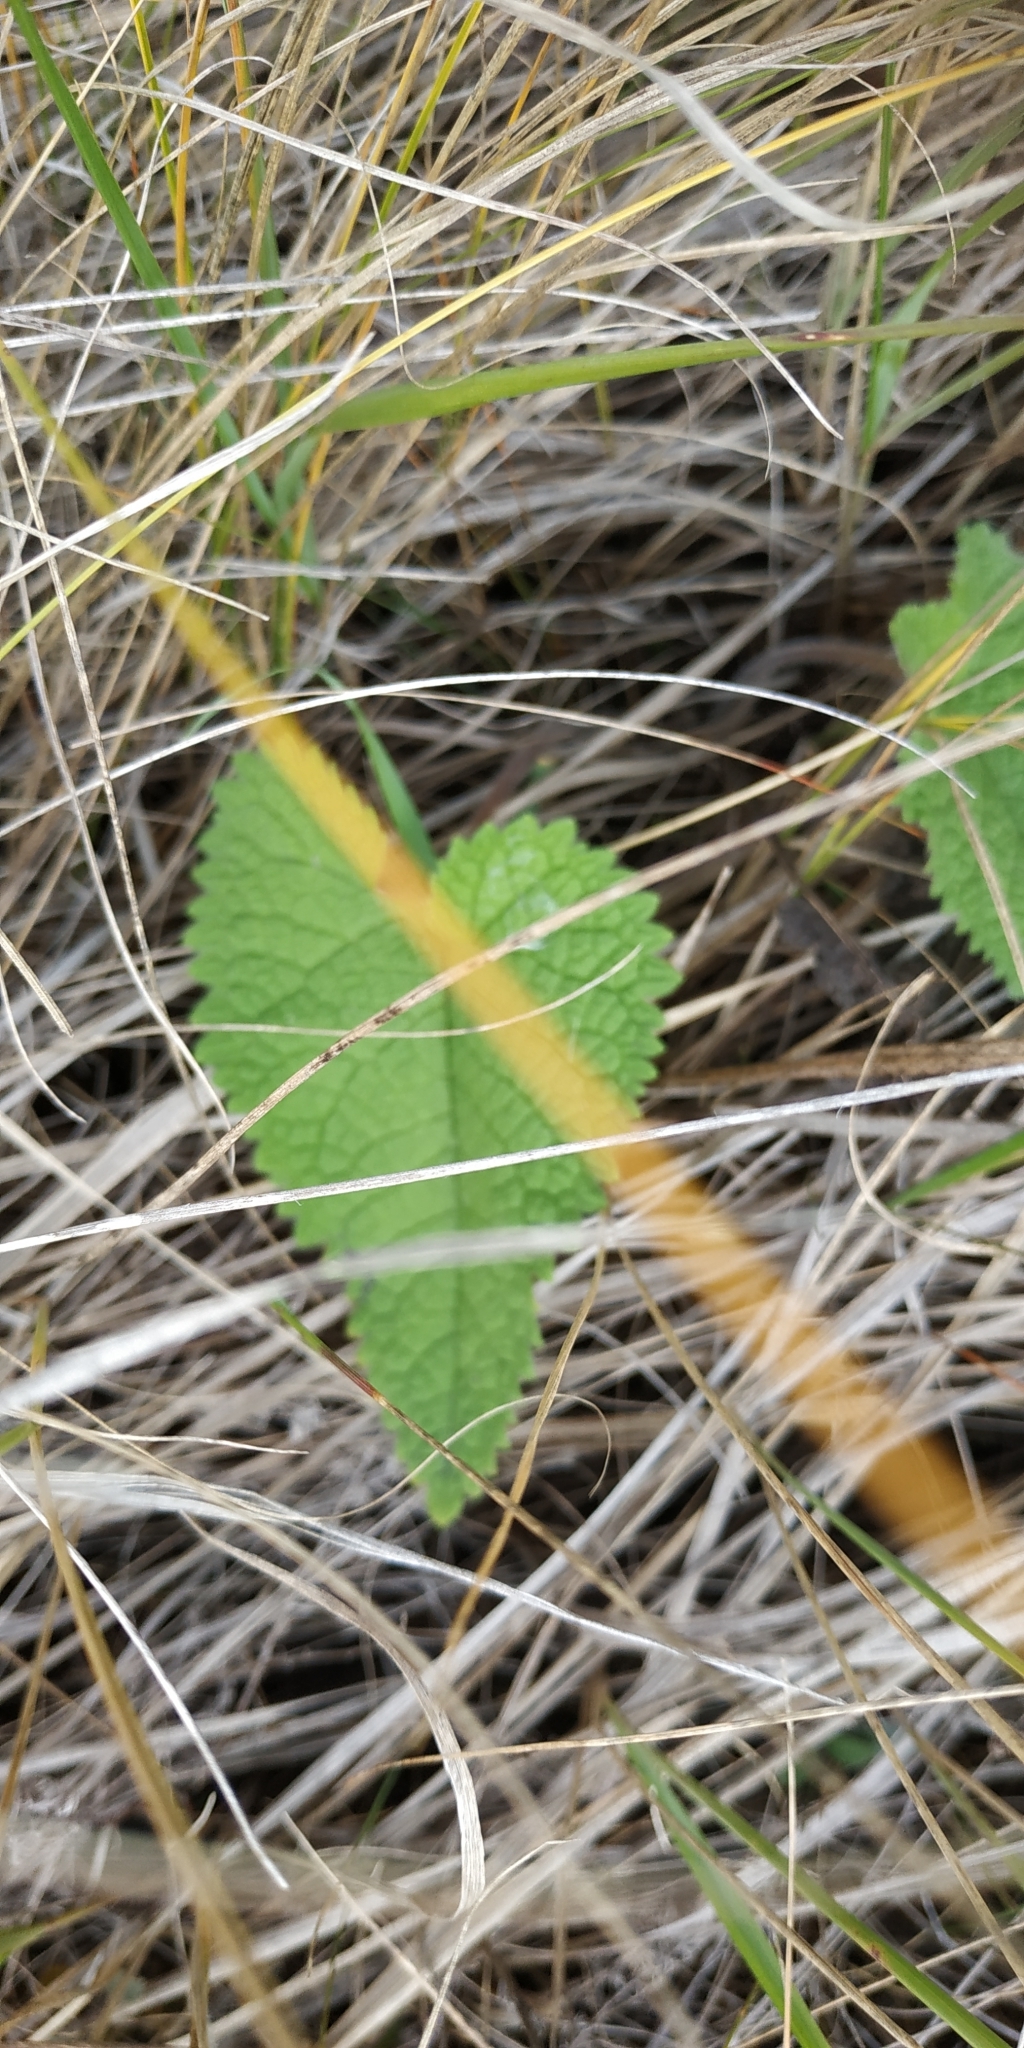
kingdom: Plantae
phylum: Tracheophyta
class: Magnoliopsida
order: Lamiales
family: Lamiaceae
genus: Phlomoides
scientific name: Phlomoides tuberosa
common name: Tuberous jerusalem sage
